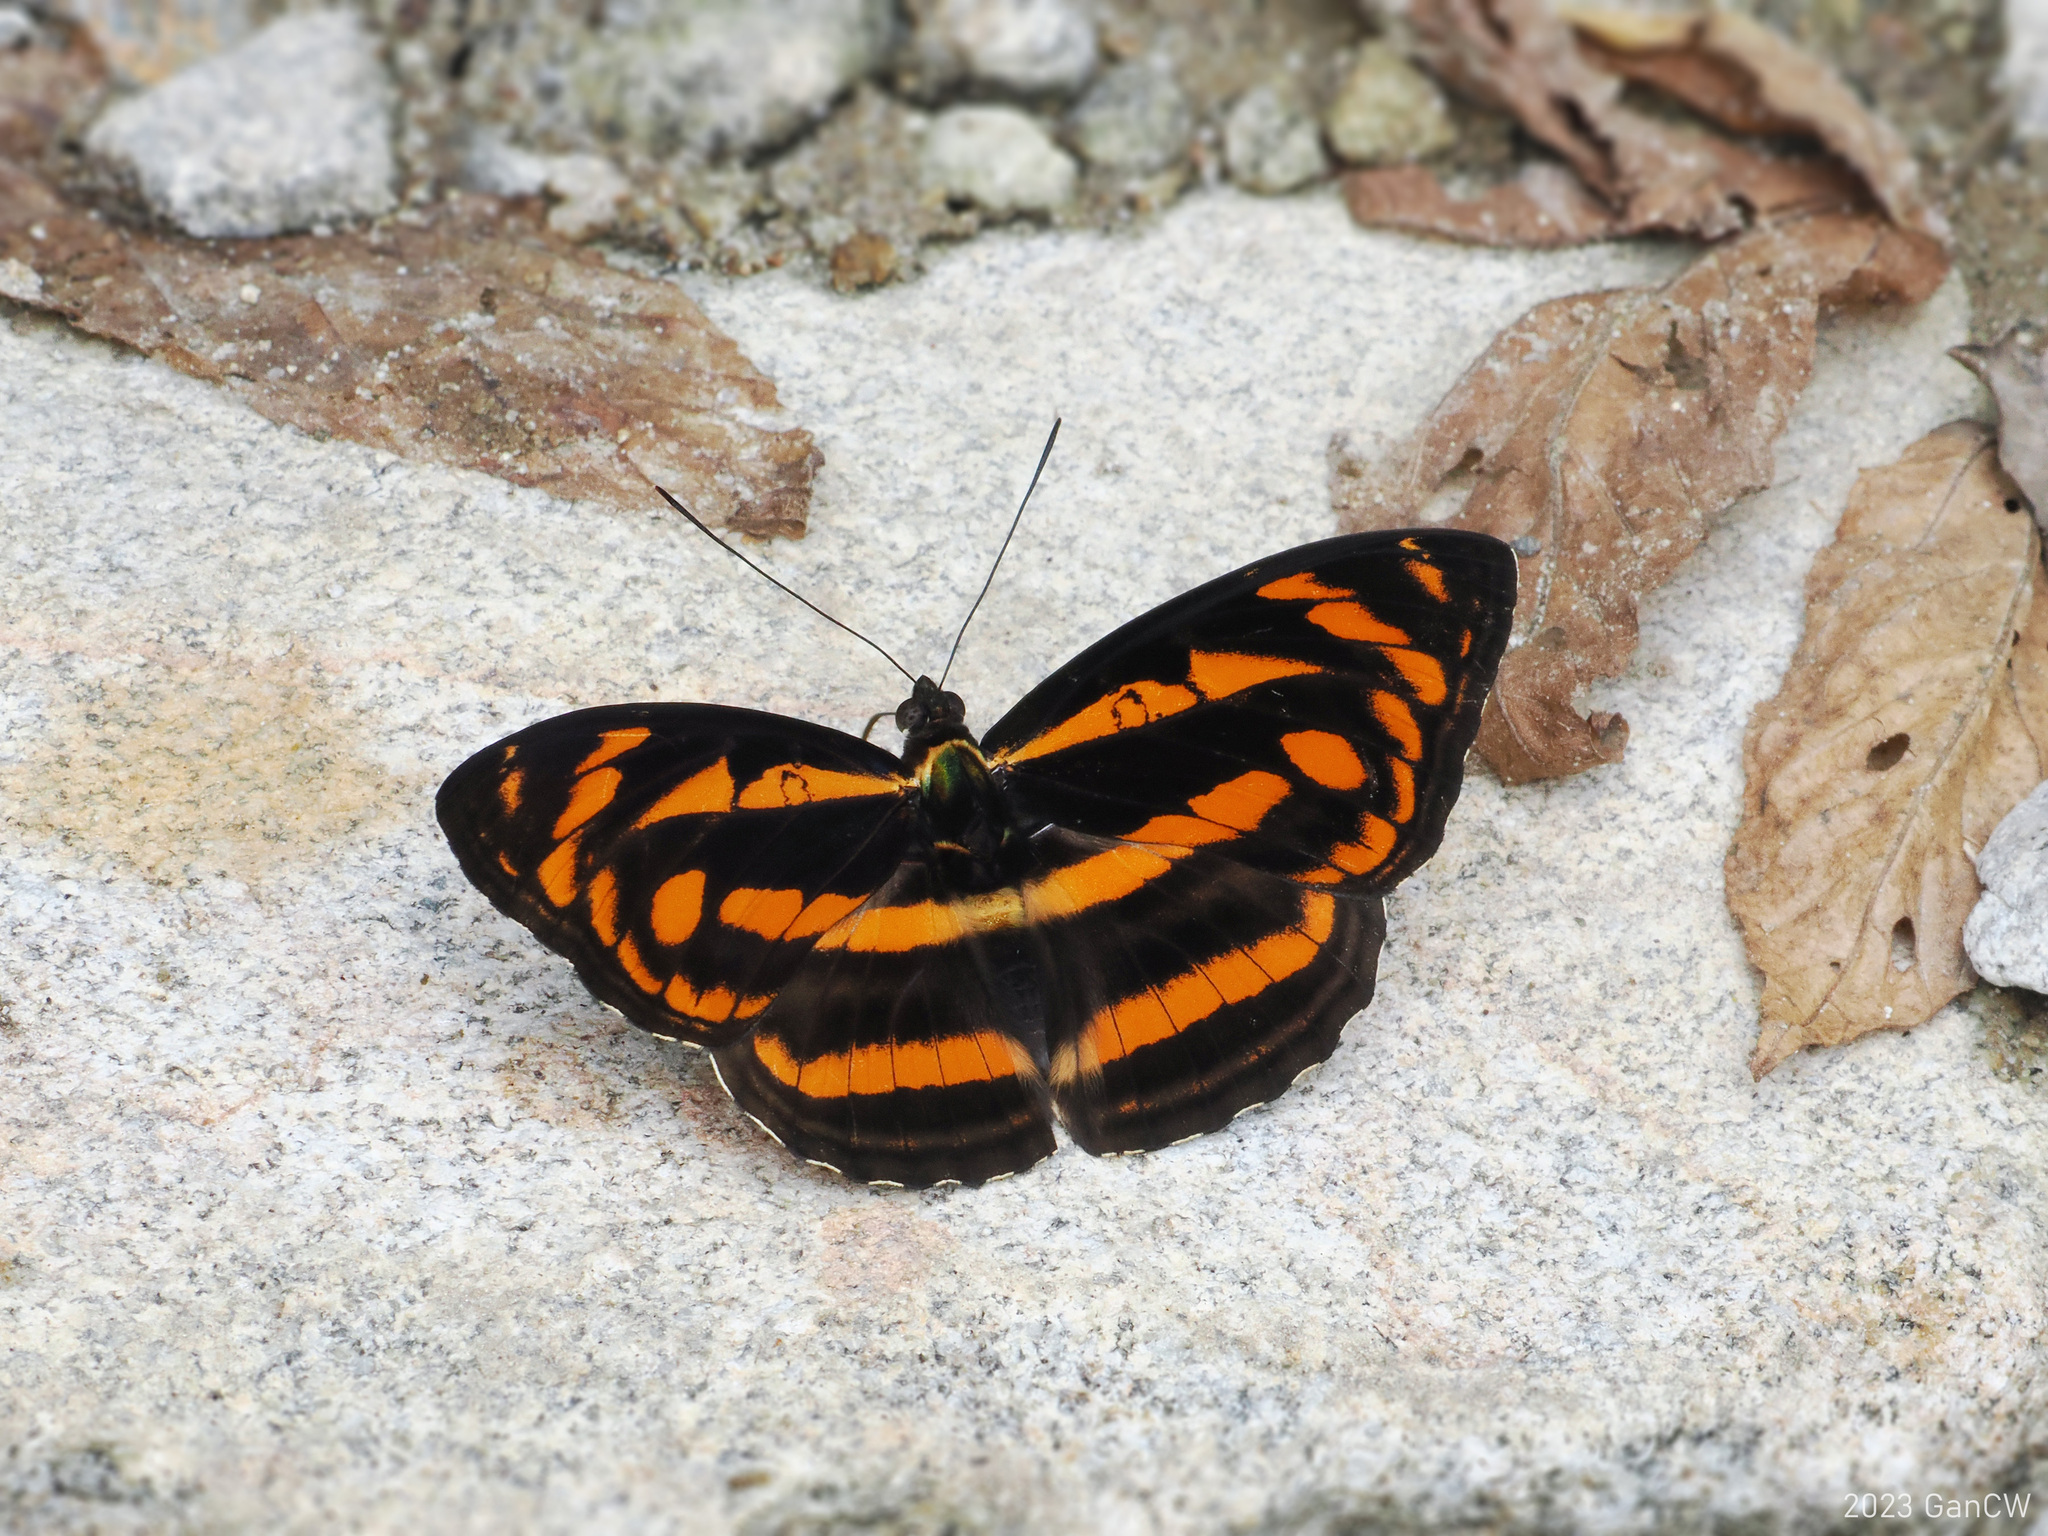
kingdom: Animalia
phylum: Arthropoda
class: Insecta
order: Lepidoptera
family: Nymphalidae
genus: Pantoporia
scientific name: Pantoporia eulimene
